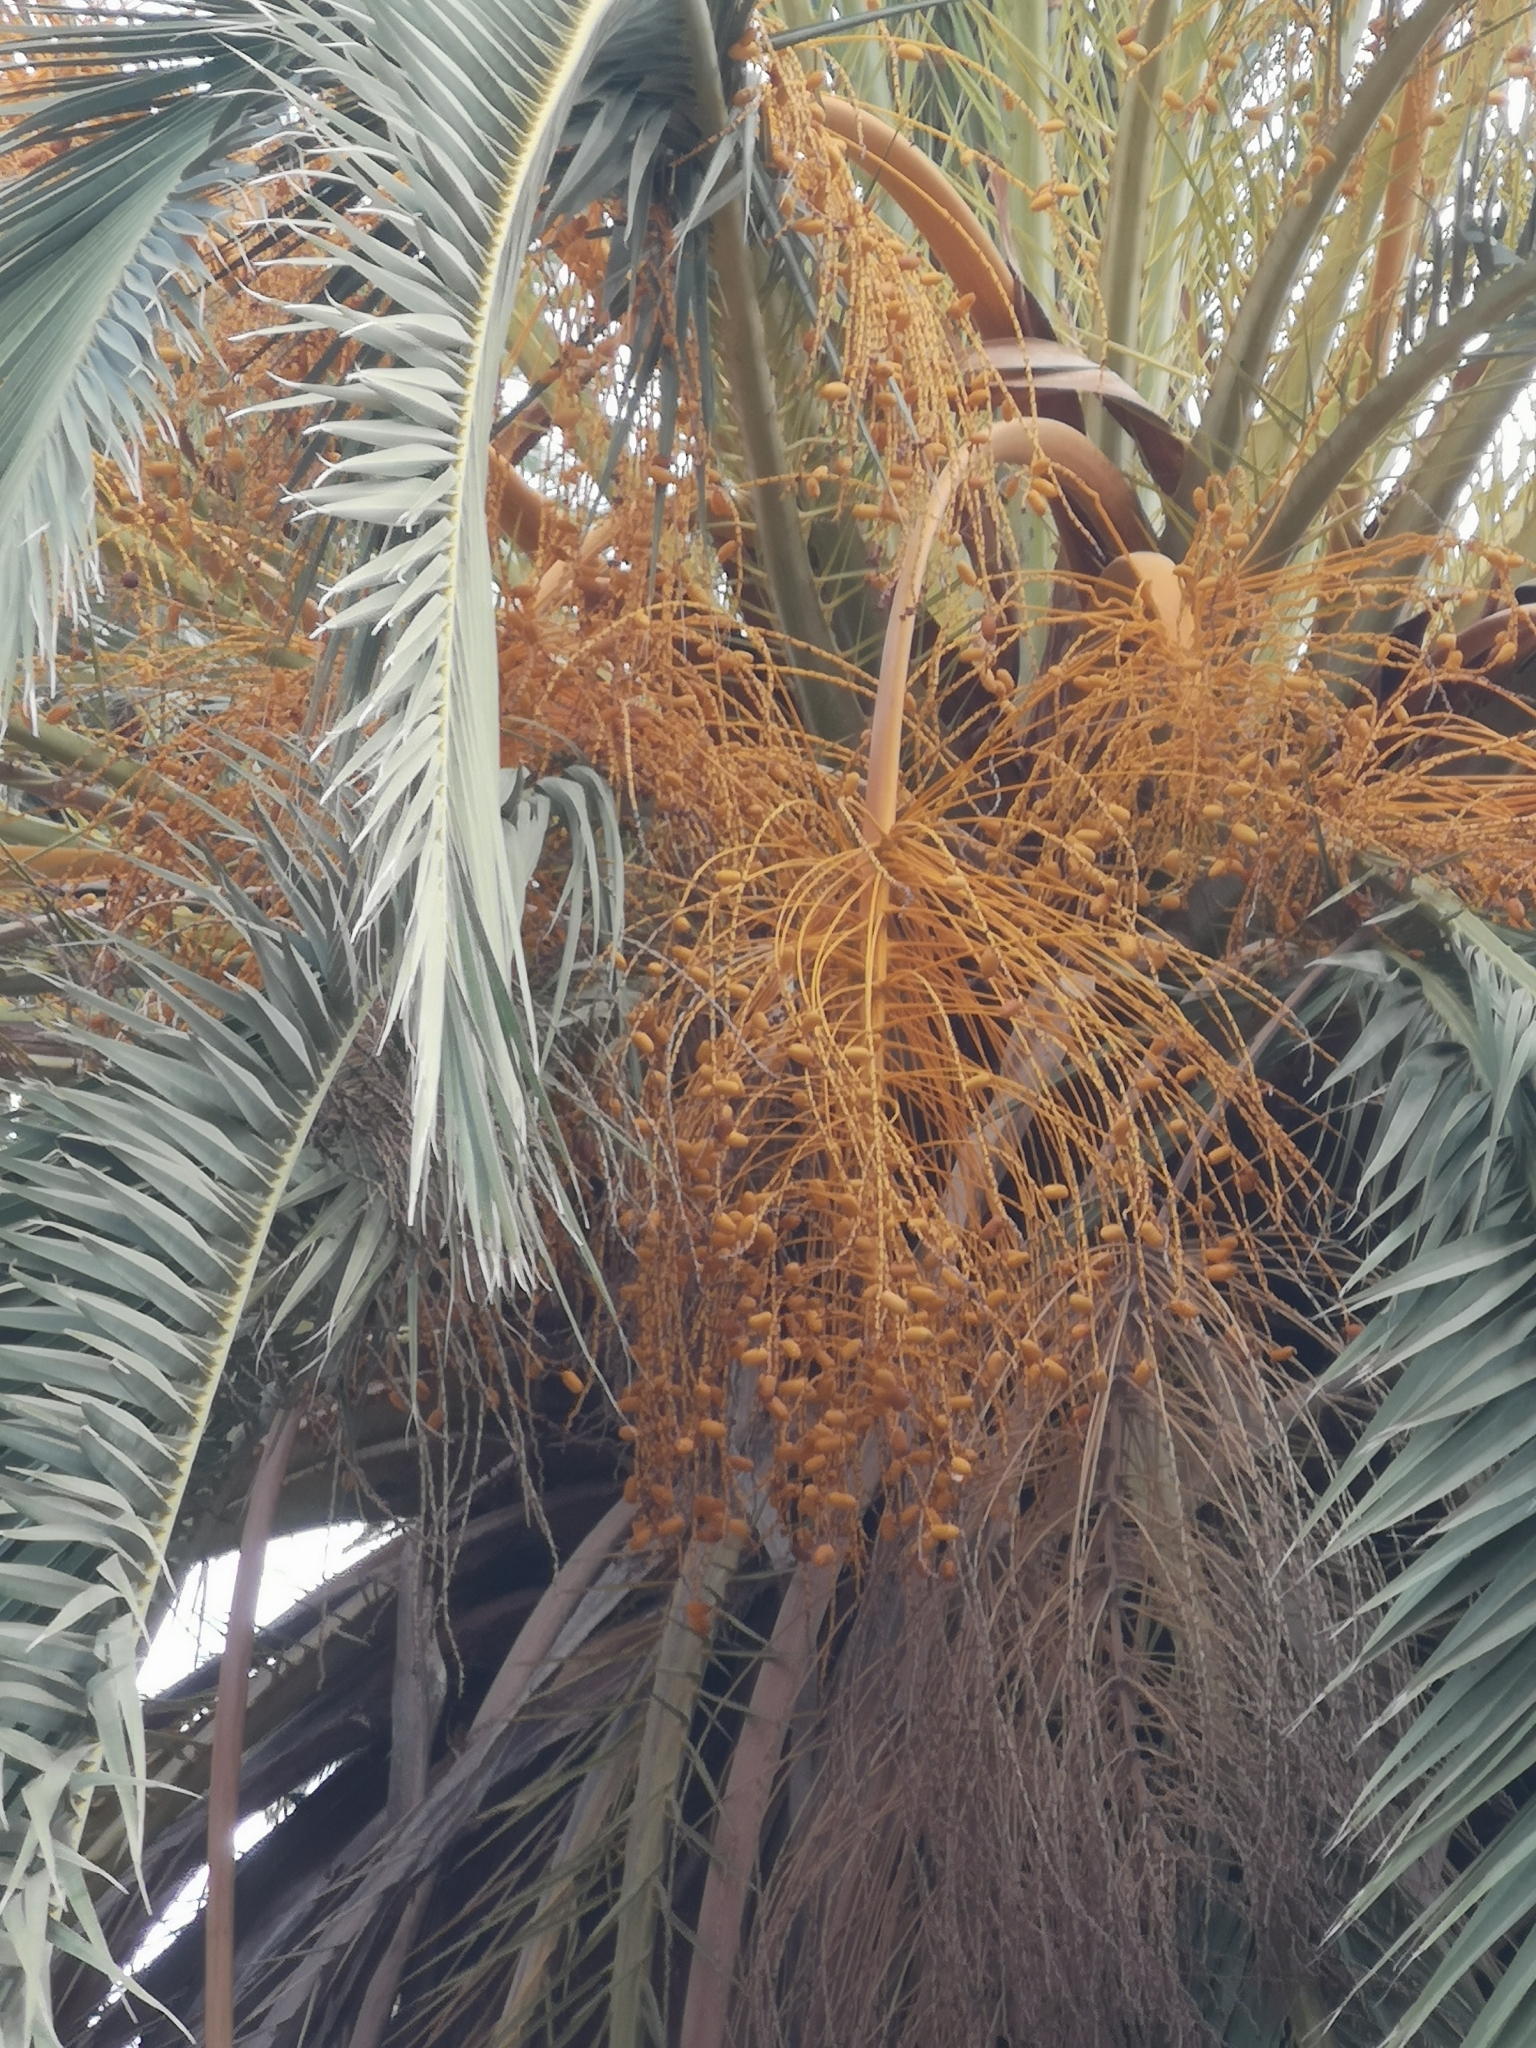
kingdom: Plantae
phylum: Tracheophyta
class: Liliopsida
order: Arecales
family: Arecaceae
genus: Phoenix
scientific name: Phoenix canariensis
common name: Canary island date palm
